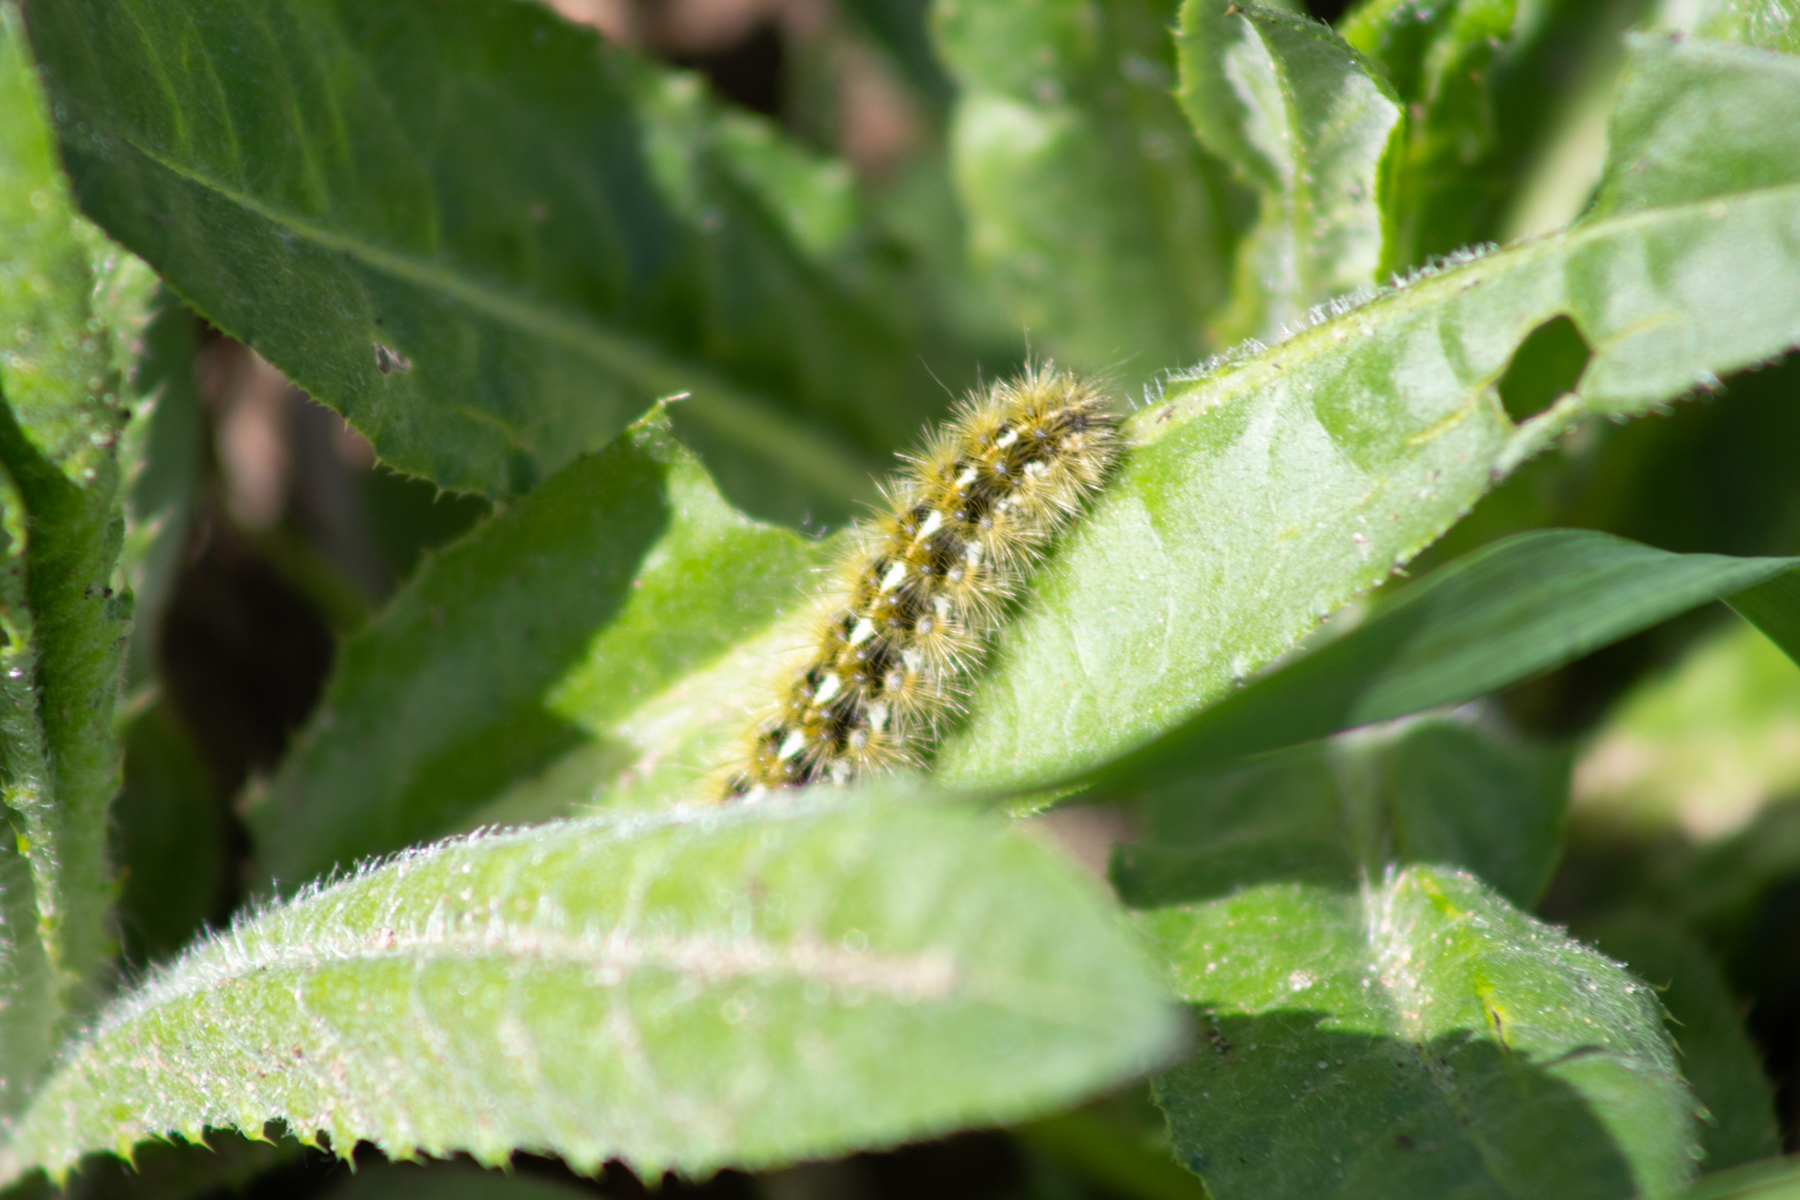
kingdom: Animalia
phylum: Arthropoda
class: Insecta
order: Lepidoptera
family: Erebidae
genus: Rhyparia
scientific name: Rhyparia purpurata
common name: Purple tiger
